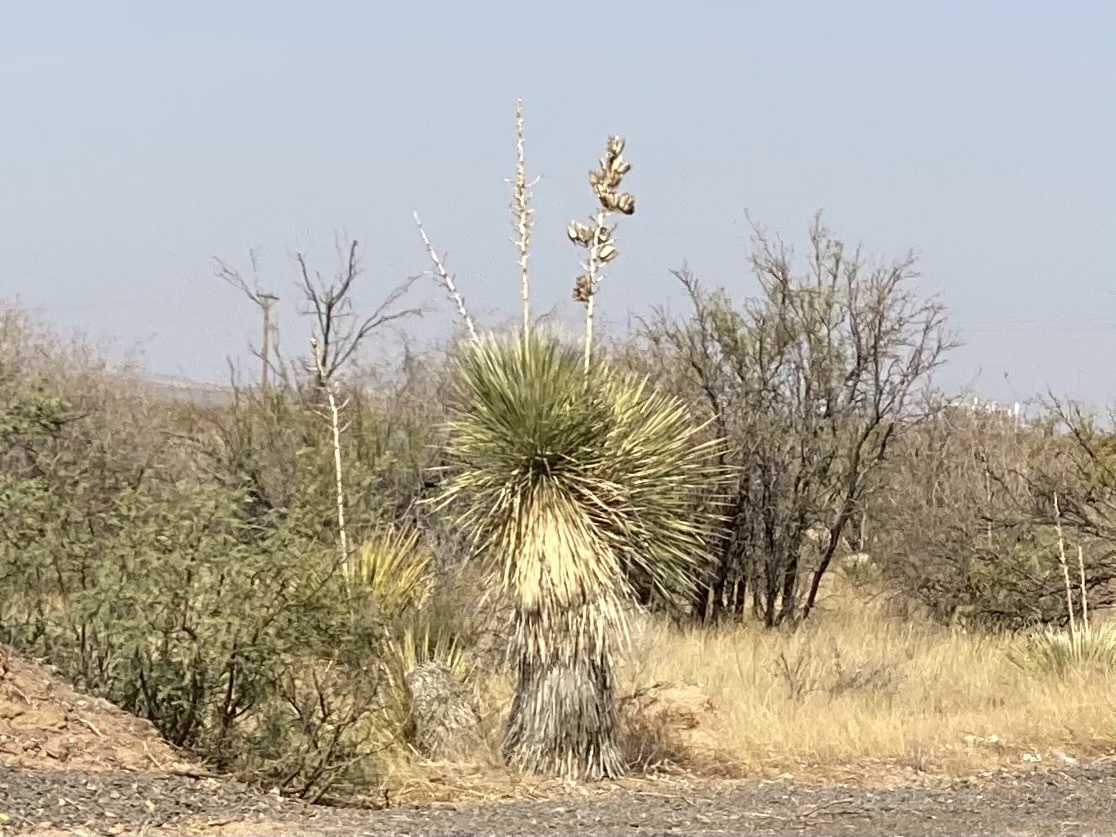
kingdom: Plantae
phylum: Tracheophyta
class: Liliopsida
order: Asparagales
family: Asparagaceae
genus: Yucca
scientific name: Yucca elata
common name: Palmella
